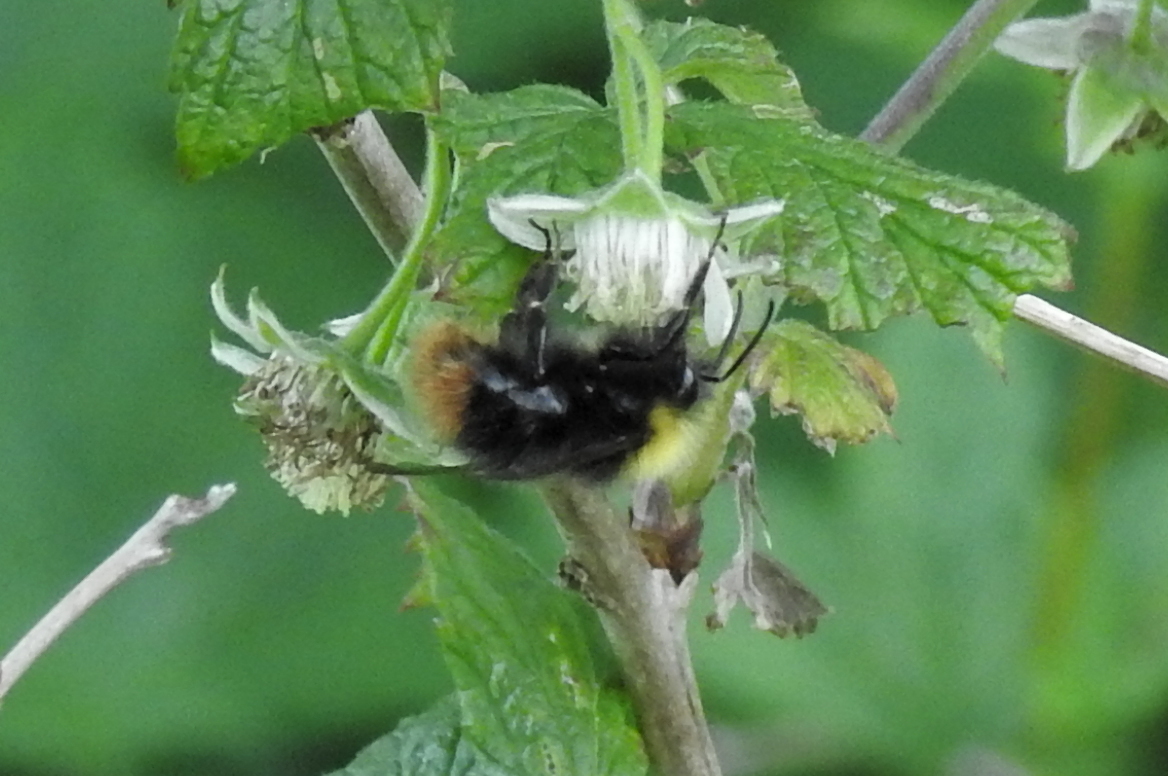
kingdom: Animalia
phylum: Arthropoda
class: Insecta
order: Hymenoptera
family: Apidae
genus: Bombus
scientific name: Bombus pratorum
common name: Early humble-bee
